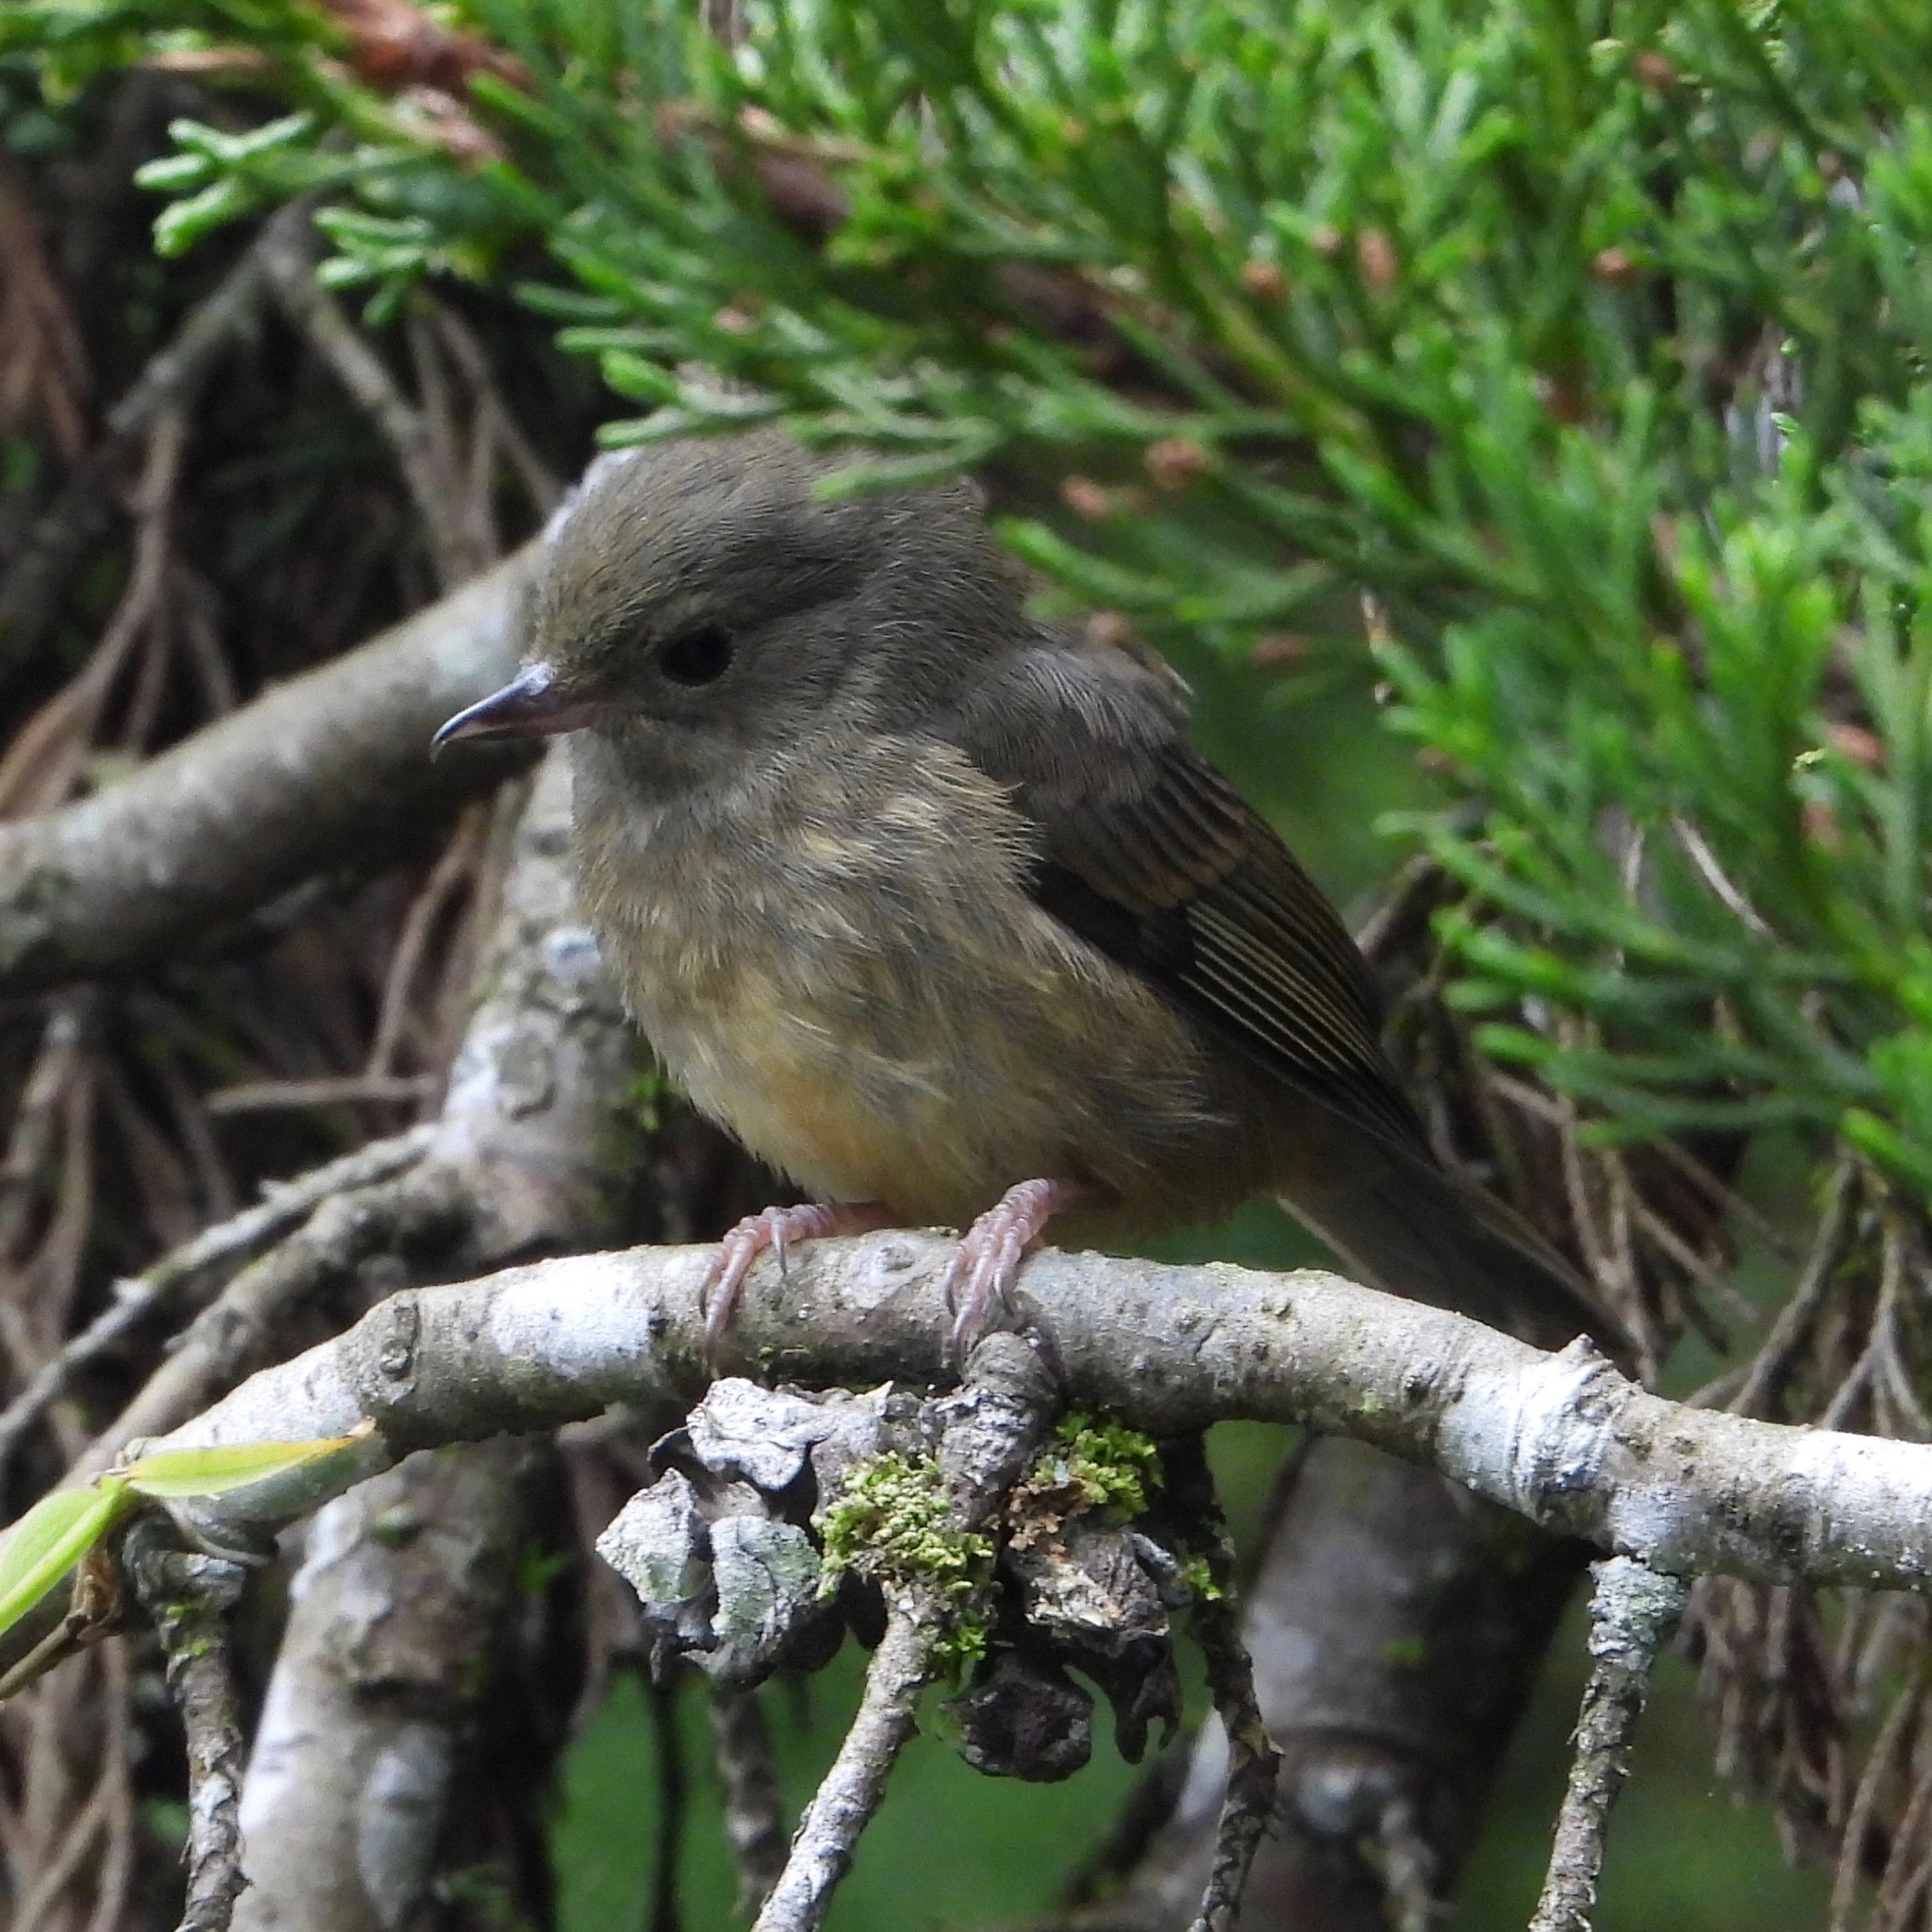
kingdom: Animalia
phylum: Chordata
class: Aves
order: Passeriformes
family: Thraupidae
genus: Diglossa
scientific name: Diglossa baritula
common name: Cinnamon-bellied flowerpiercer
